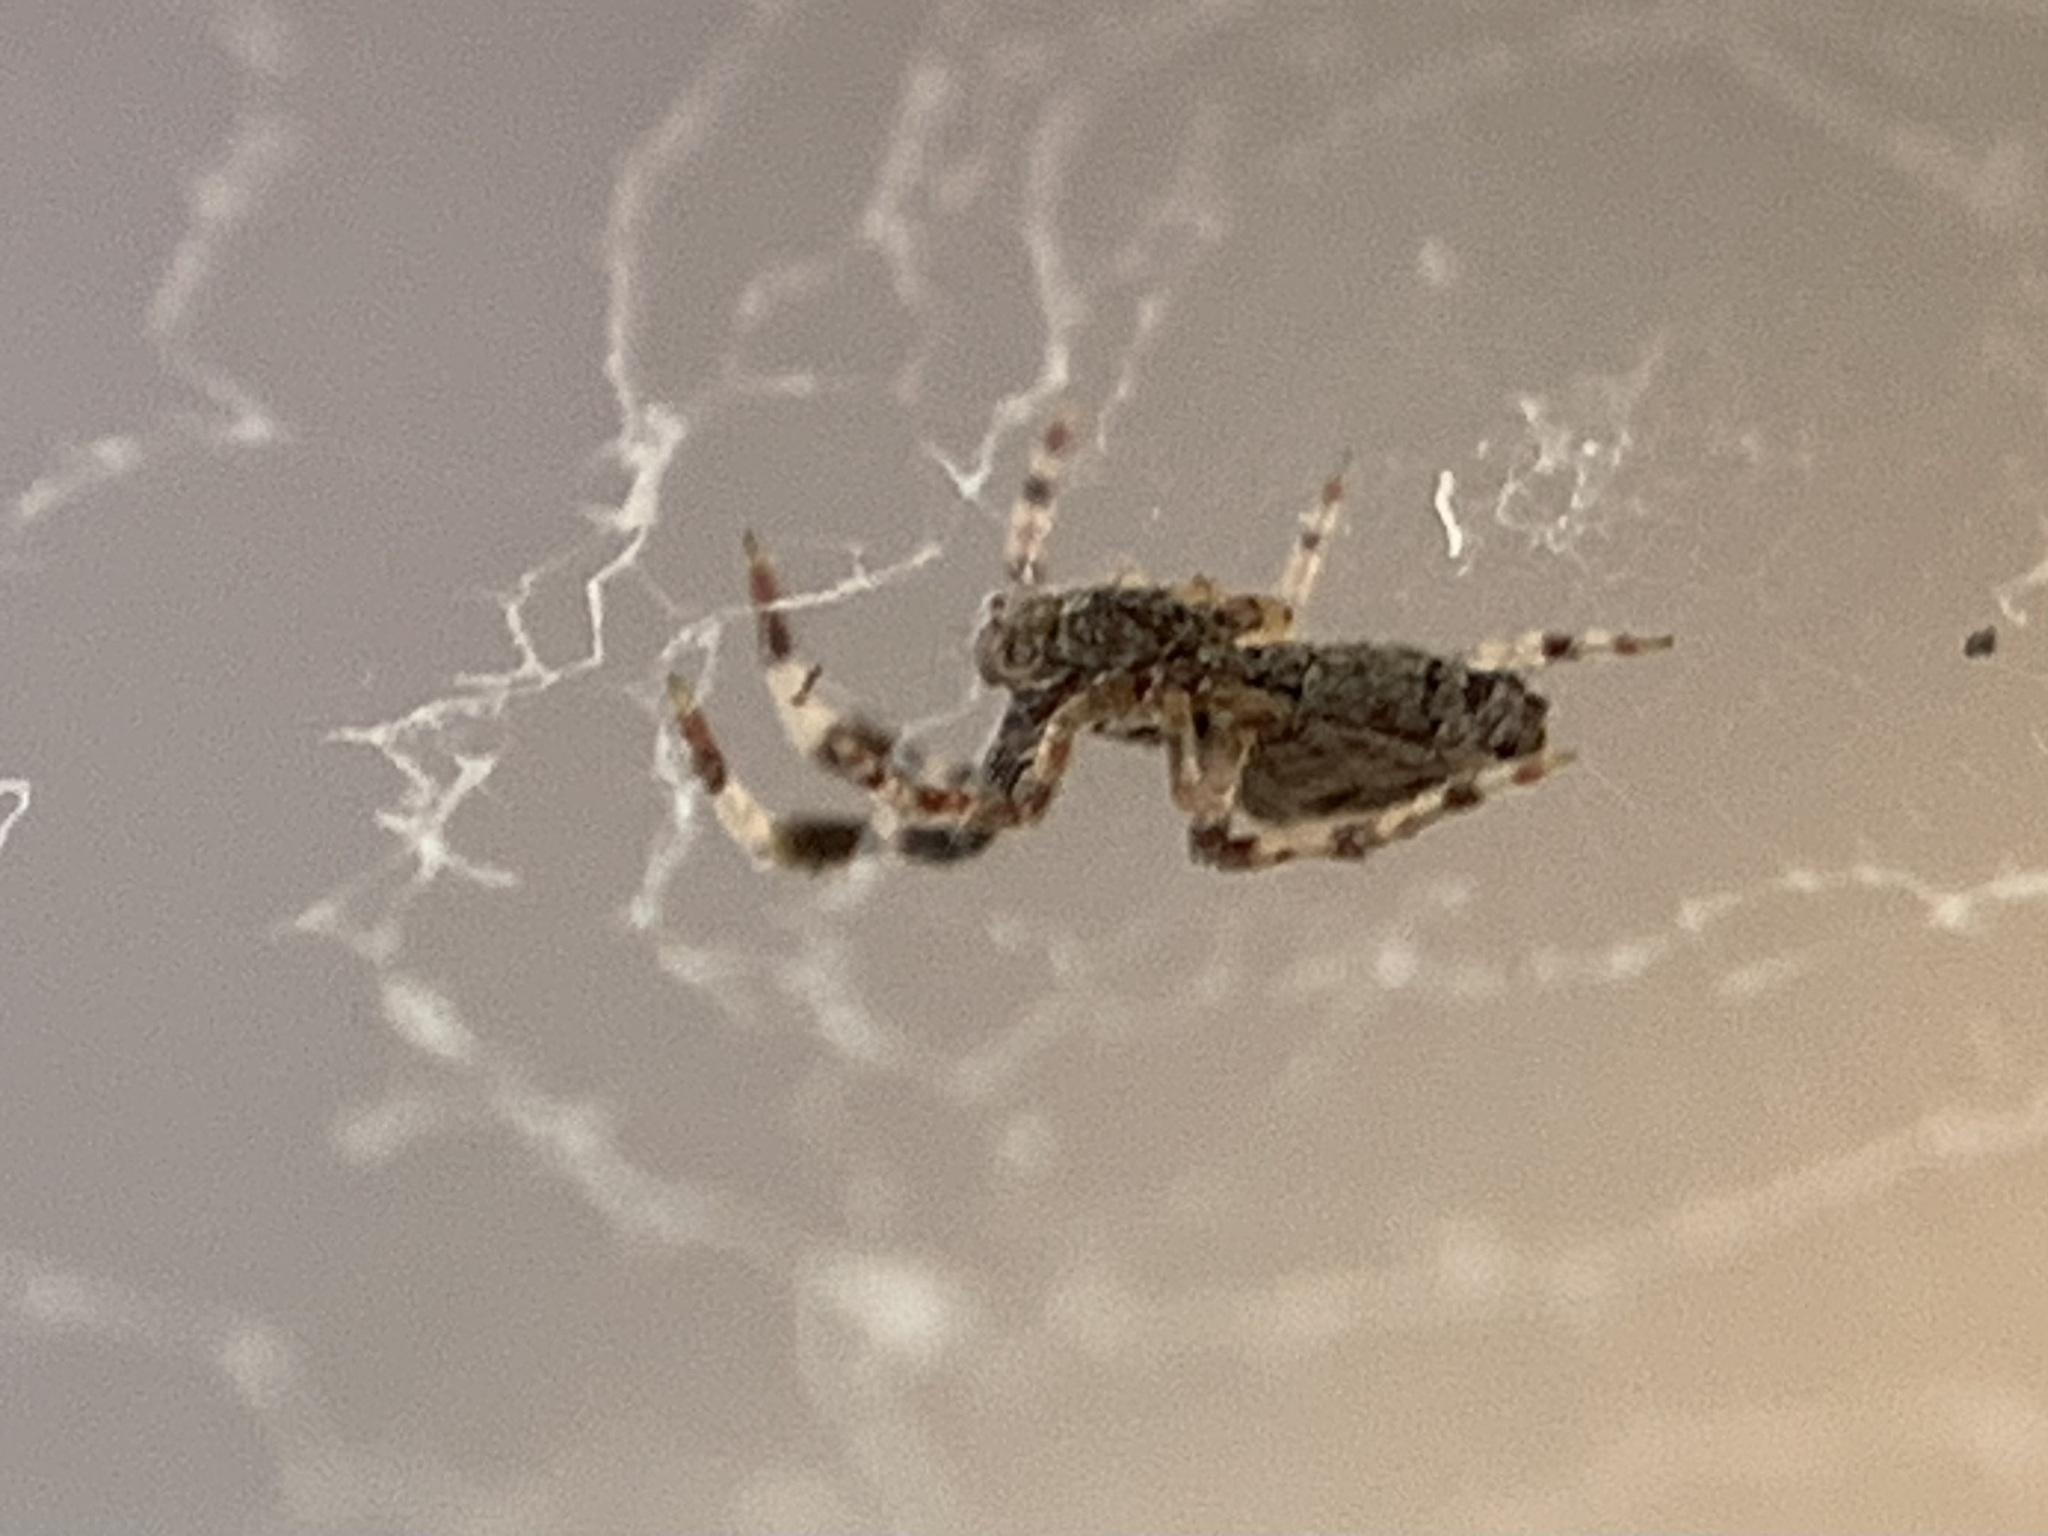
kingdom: Animalia
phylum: Arthropoda
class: Arachnida
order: Araneae
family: Uloboridae
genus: Uloborus
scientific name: Uloborus plumipes
